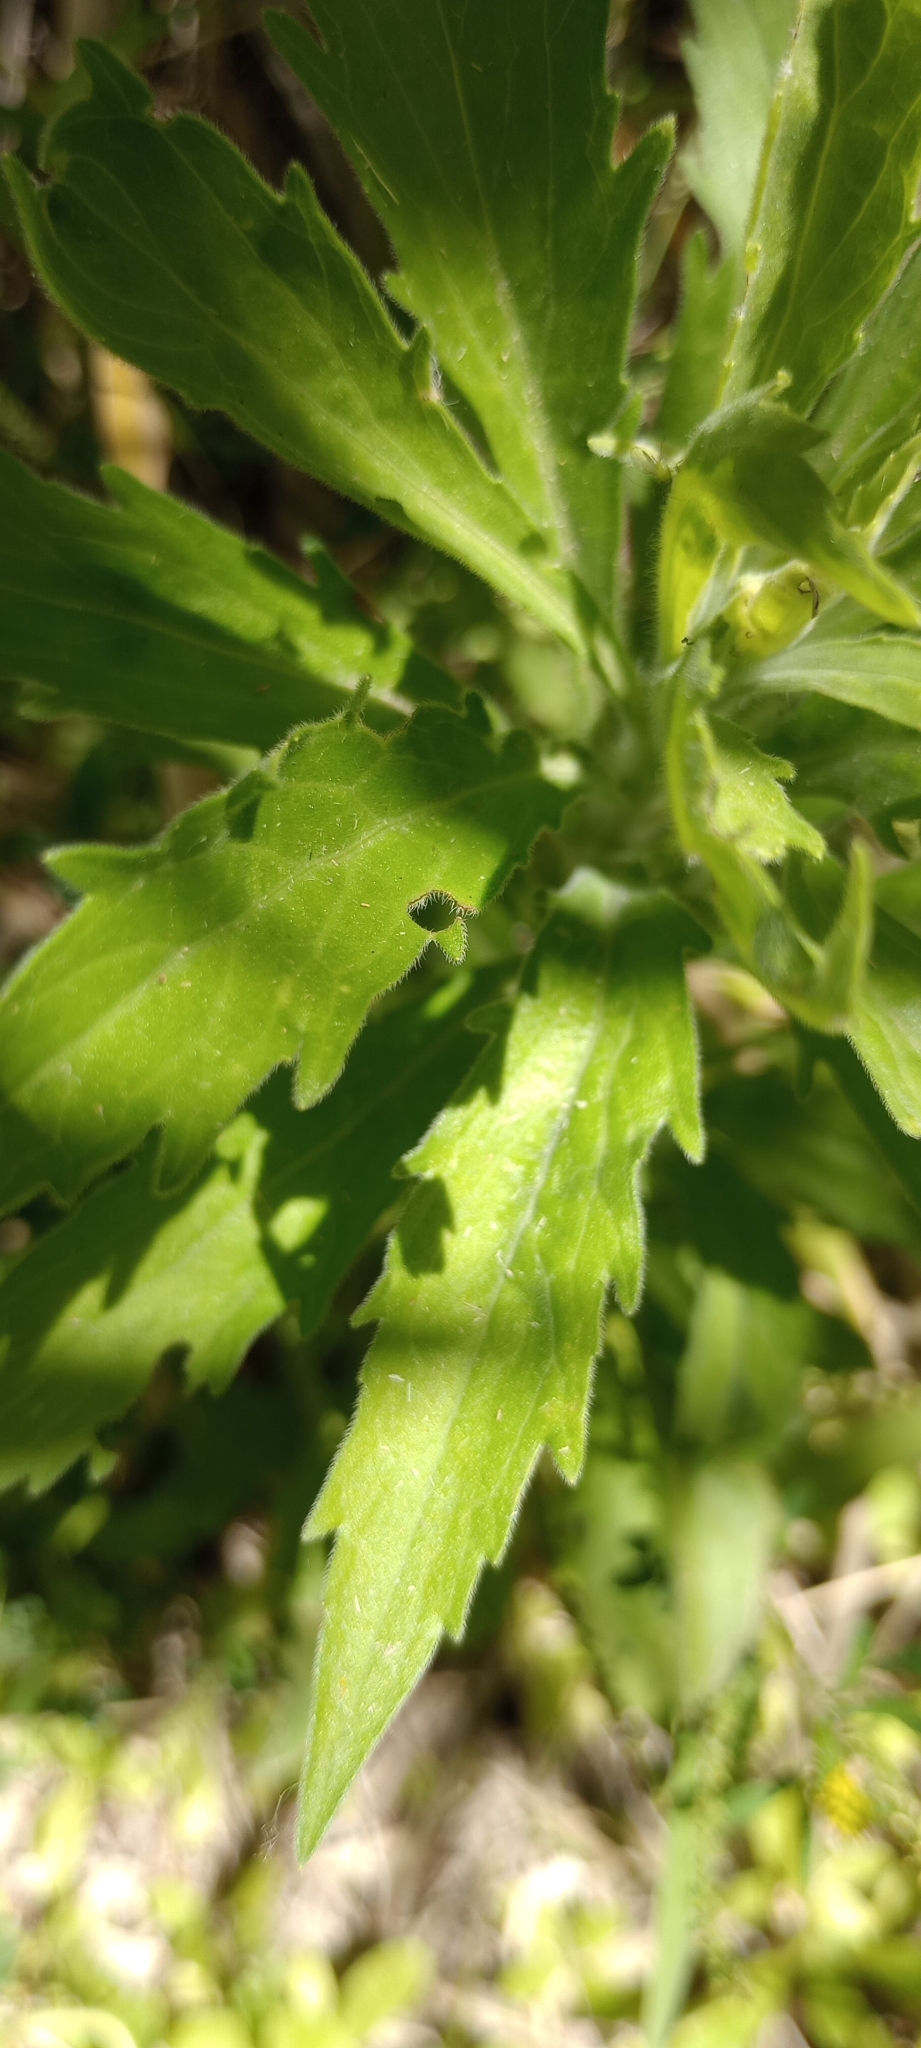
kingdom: Plantae
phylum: Tracheophyta
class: Magnoliopsida
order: Asterales
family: Asteraceae
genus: Erigeron
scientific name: Erigeron bonariensis
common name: Argentine fleabane
